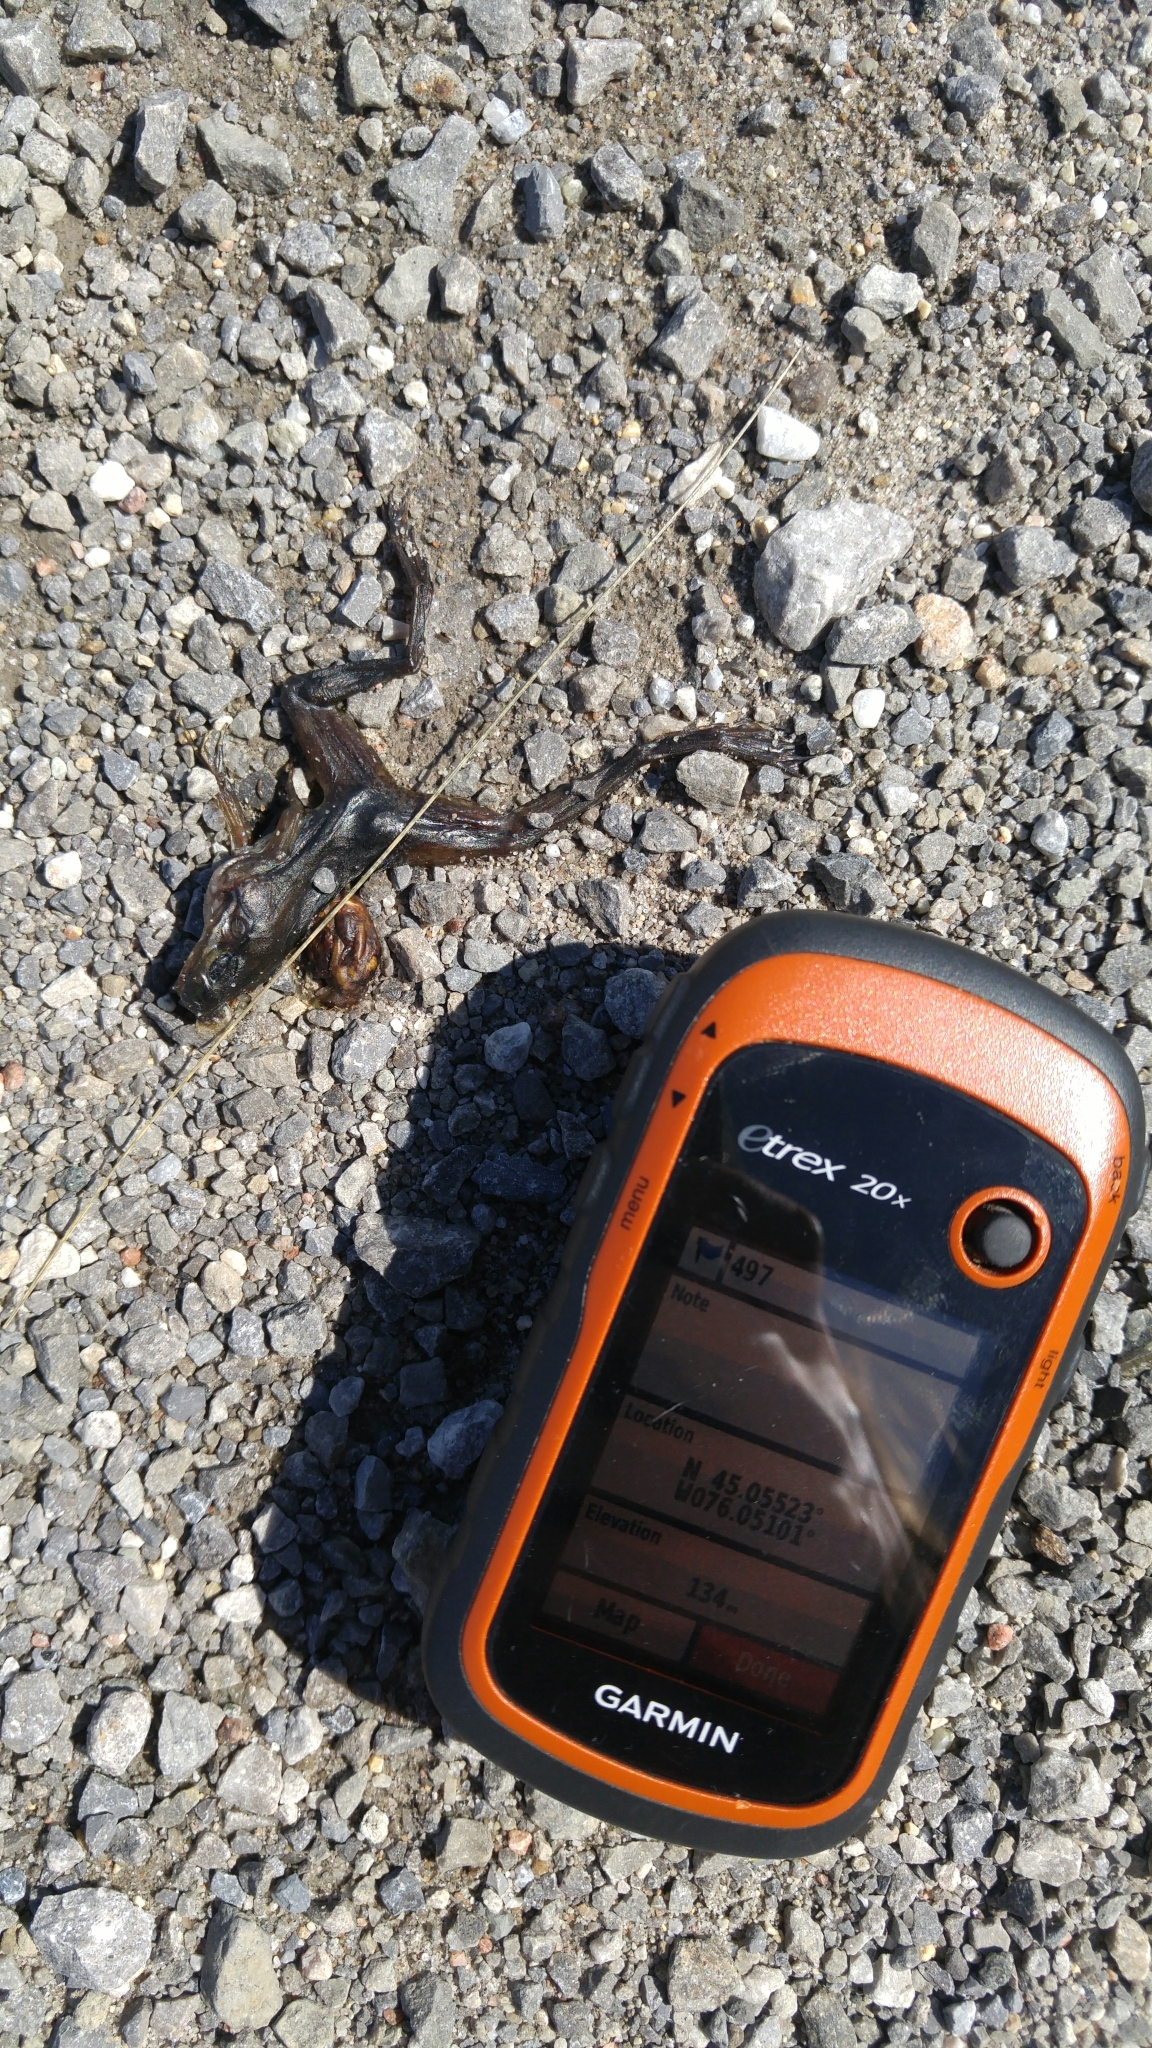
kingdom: Animalia
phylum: Chordata
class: Amphibia
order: Anura
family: Ranidae
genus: Lithobates
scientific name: Lithobates
